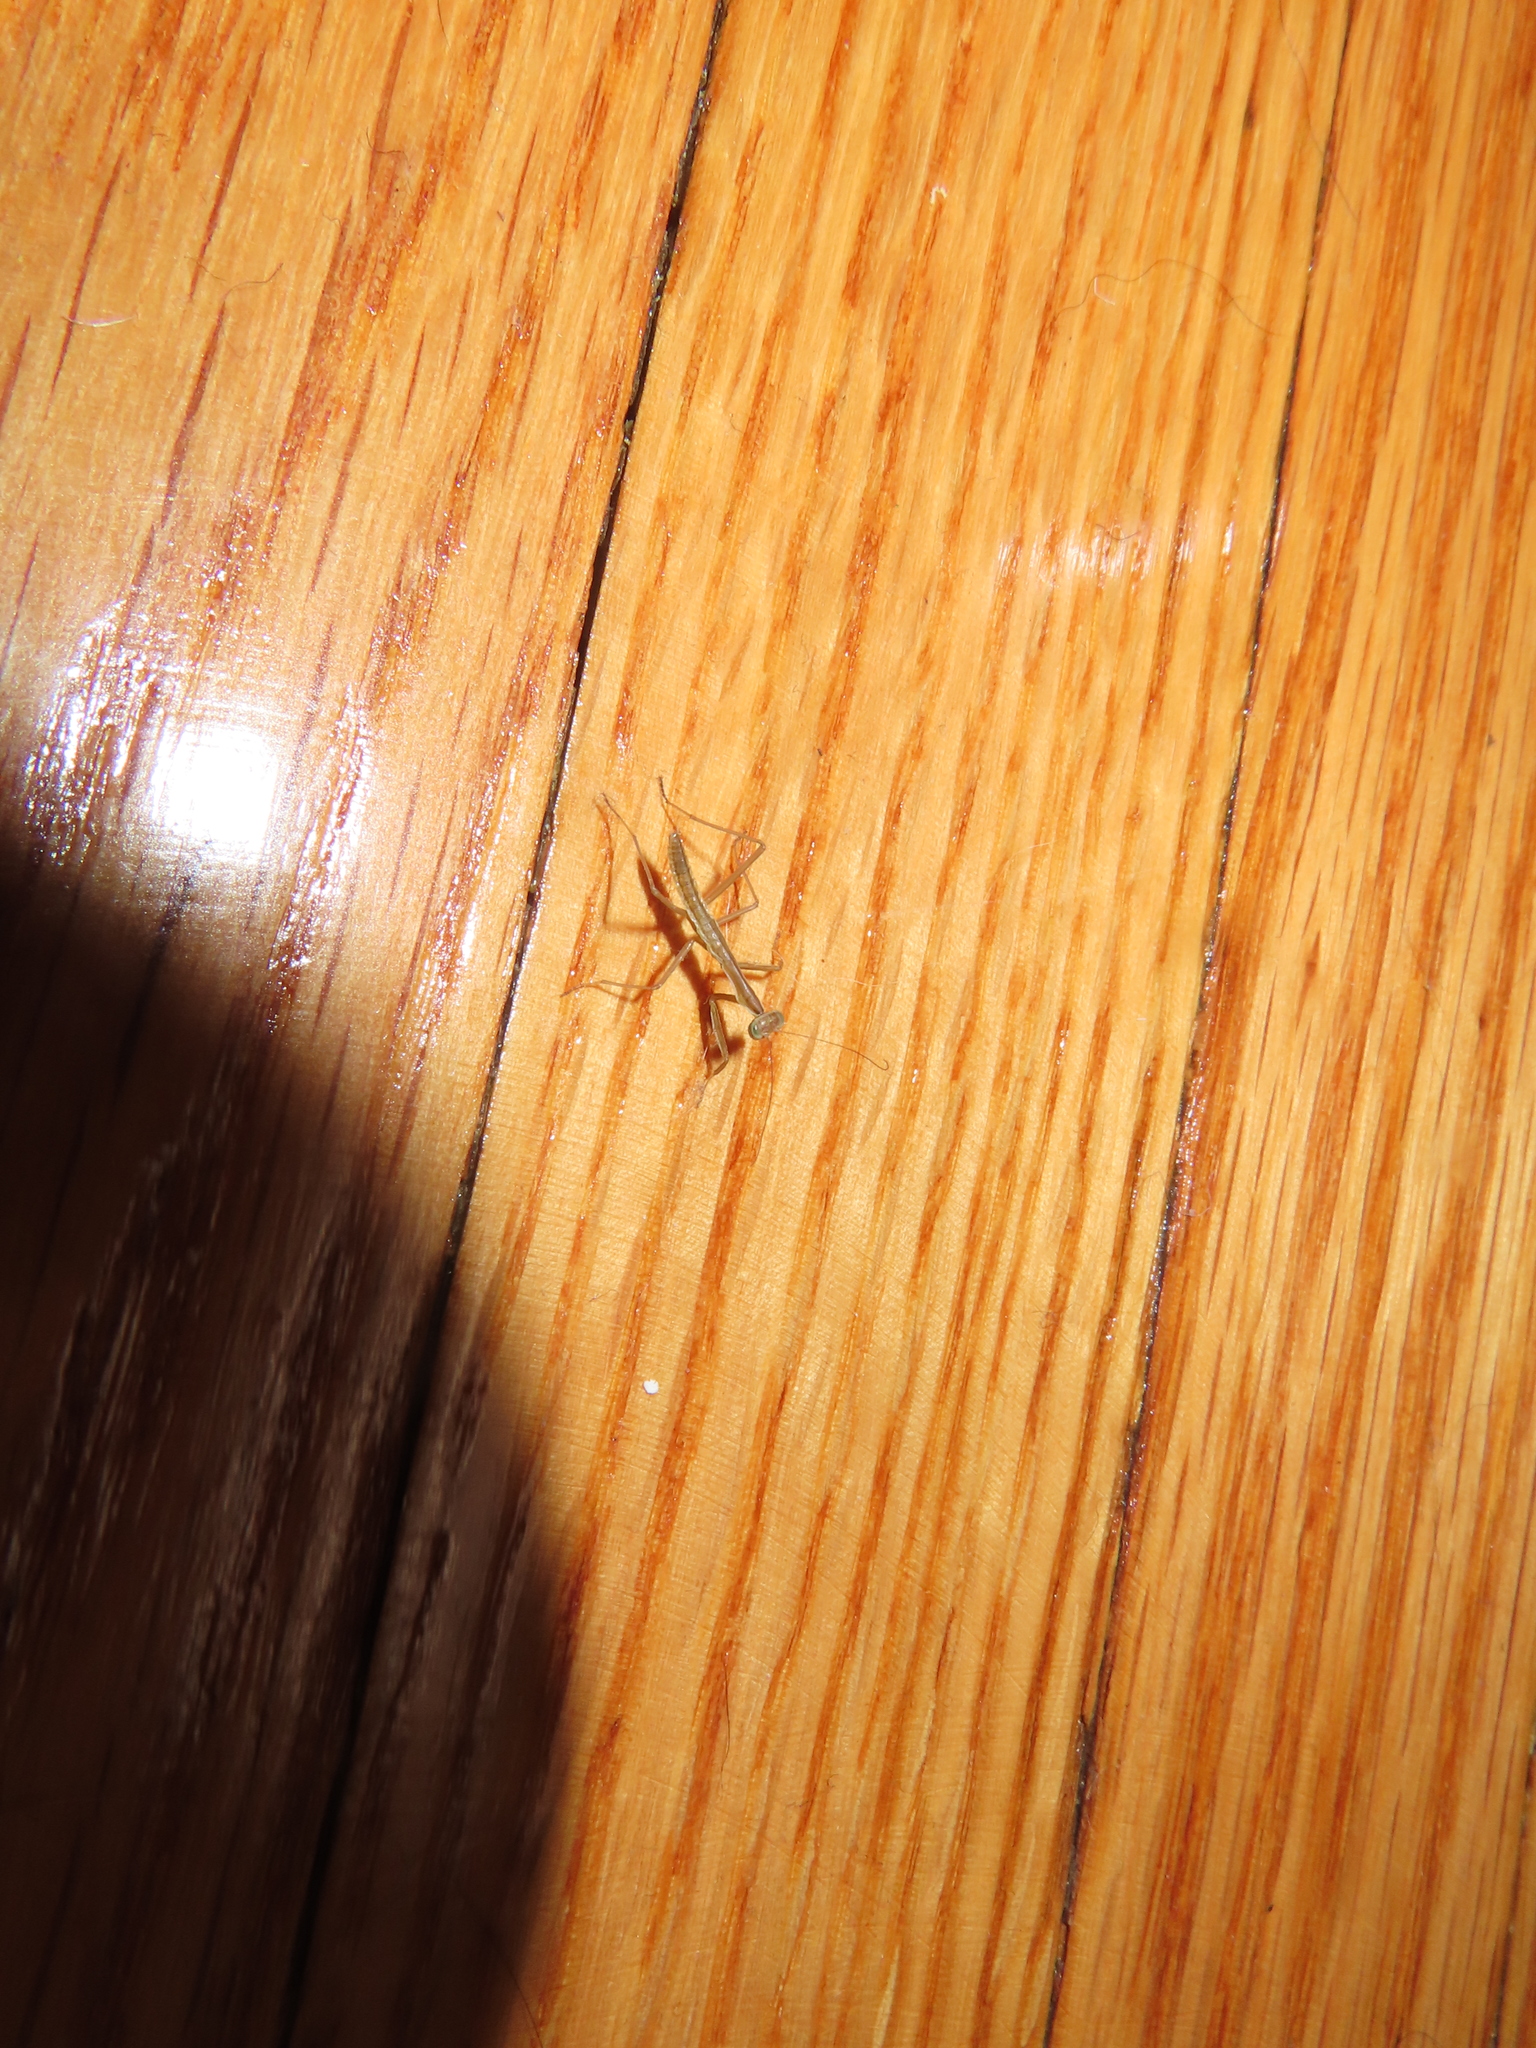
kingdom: Animalia
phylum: Arthropoda
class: Insecta
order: Mantodea
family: Mantidae
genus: Tenodera
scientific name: Tenodera sinensis
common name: Chinese mantis
